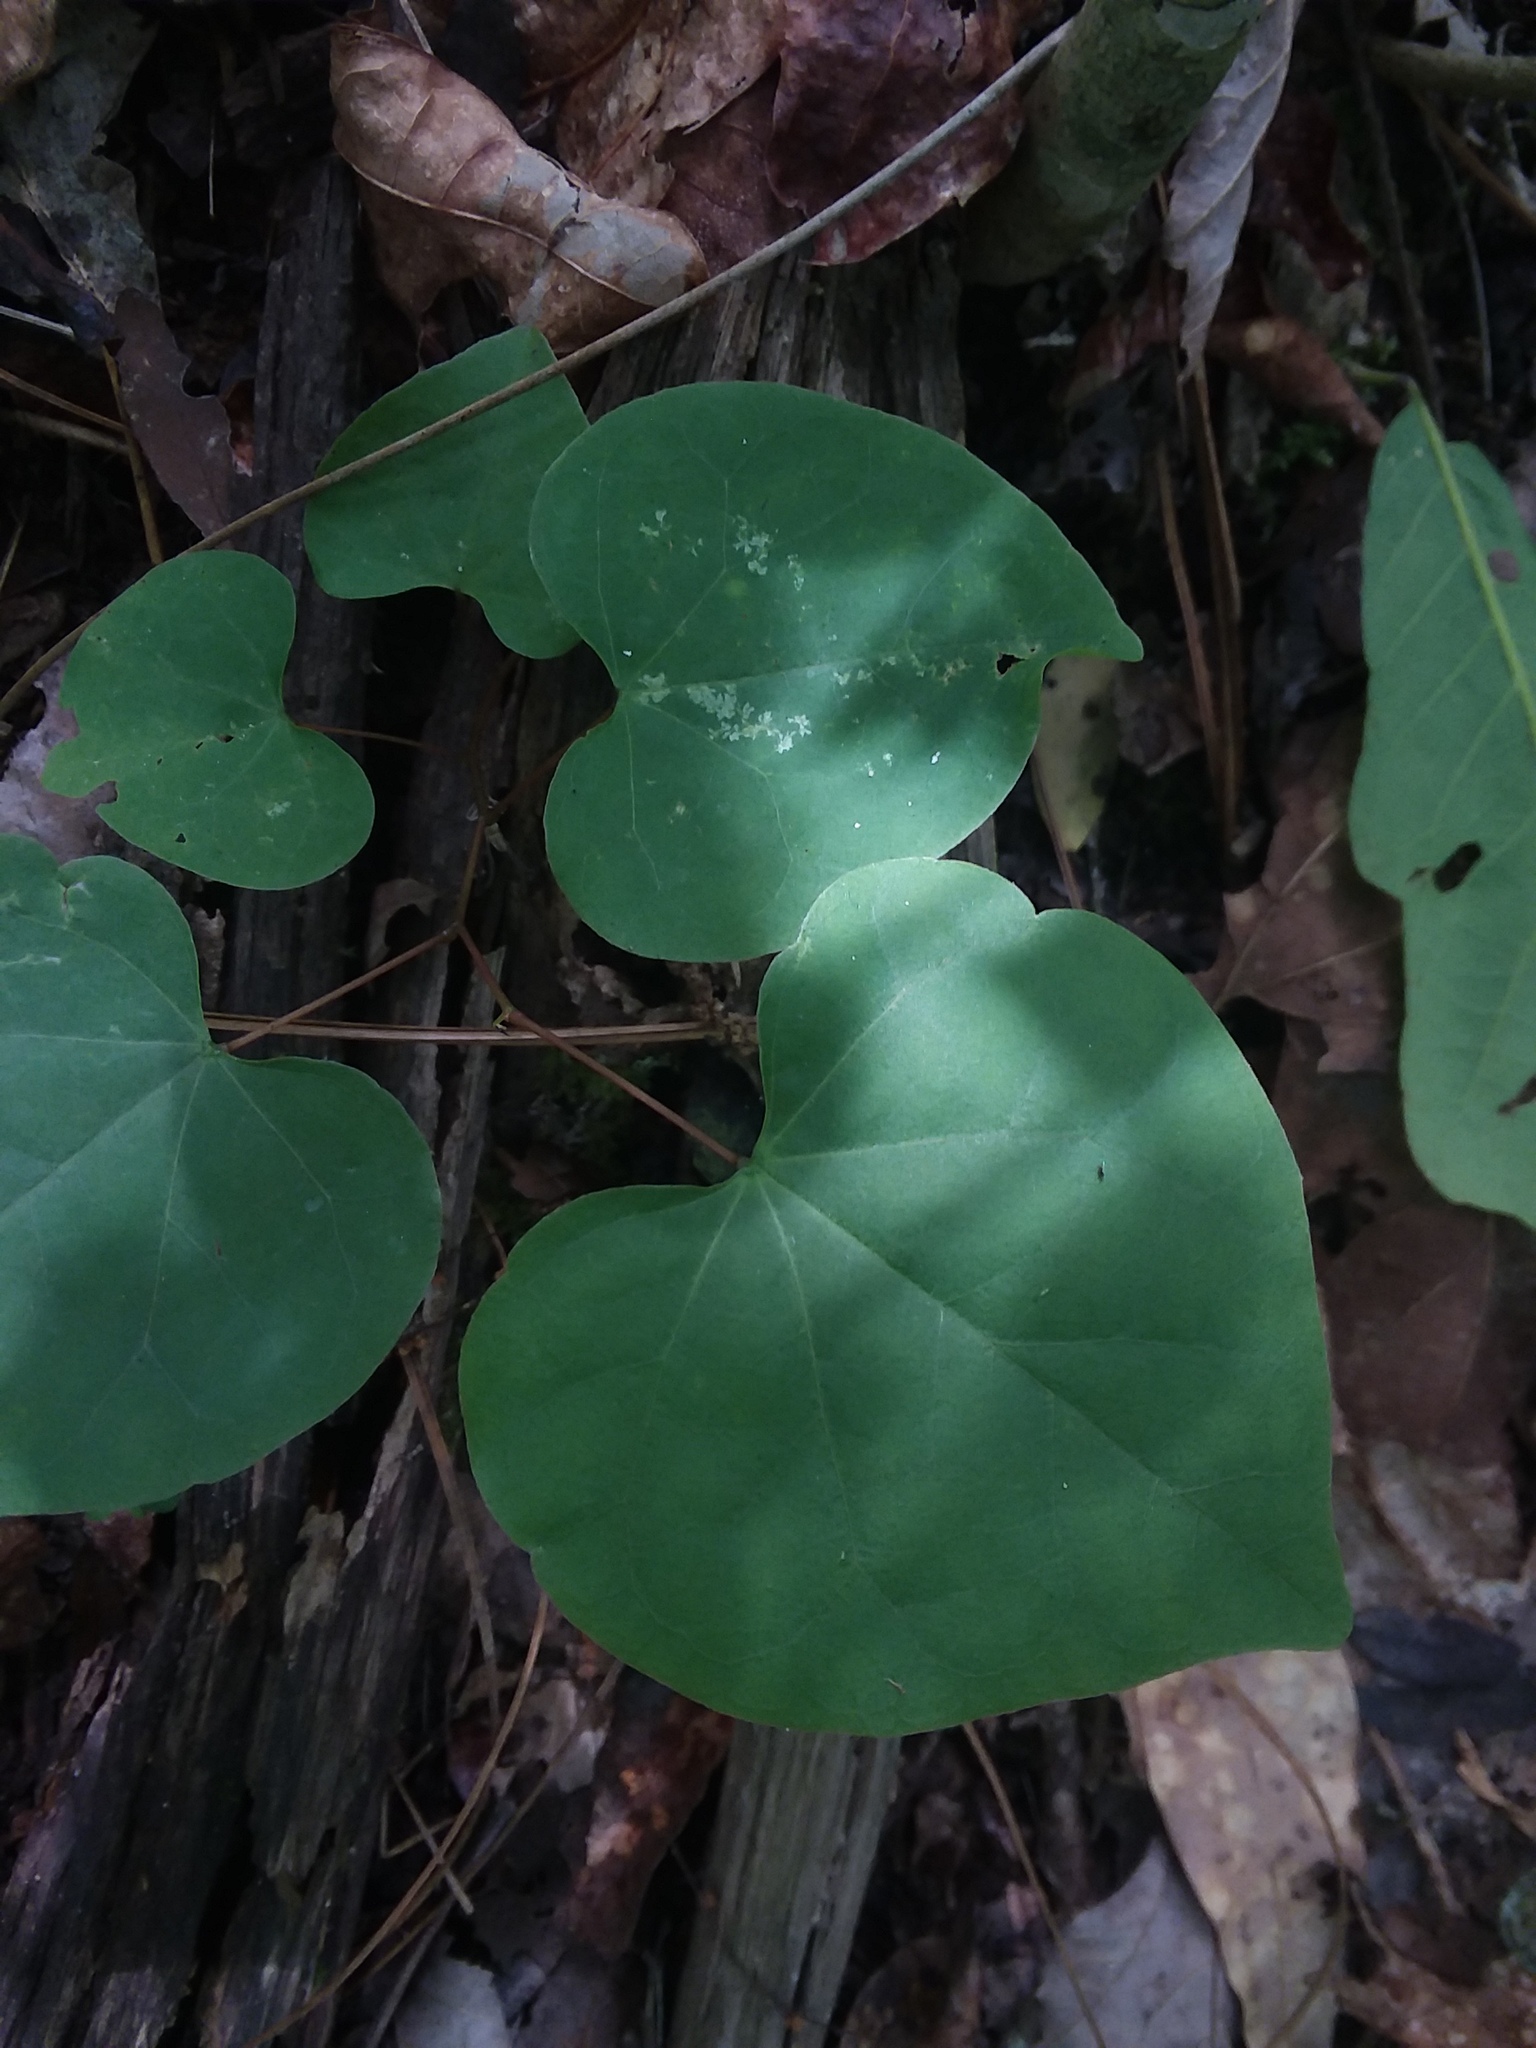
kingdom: Plantae
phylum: Tracheophyta
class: Magnoliopsida
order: Fabales
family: Fabaceae
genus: Cercis
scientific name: Cercis canadensis
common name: Eastern redbud
